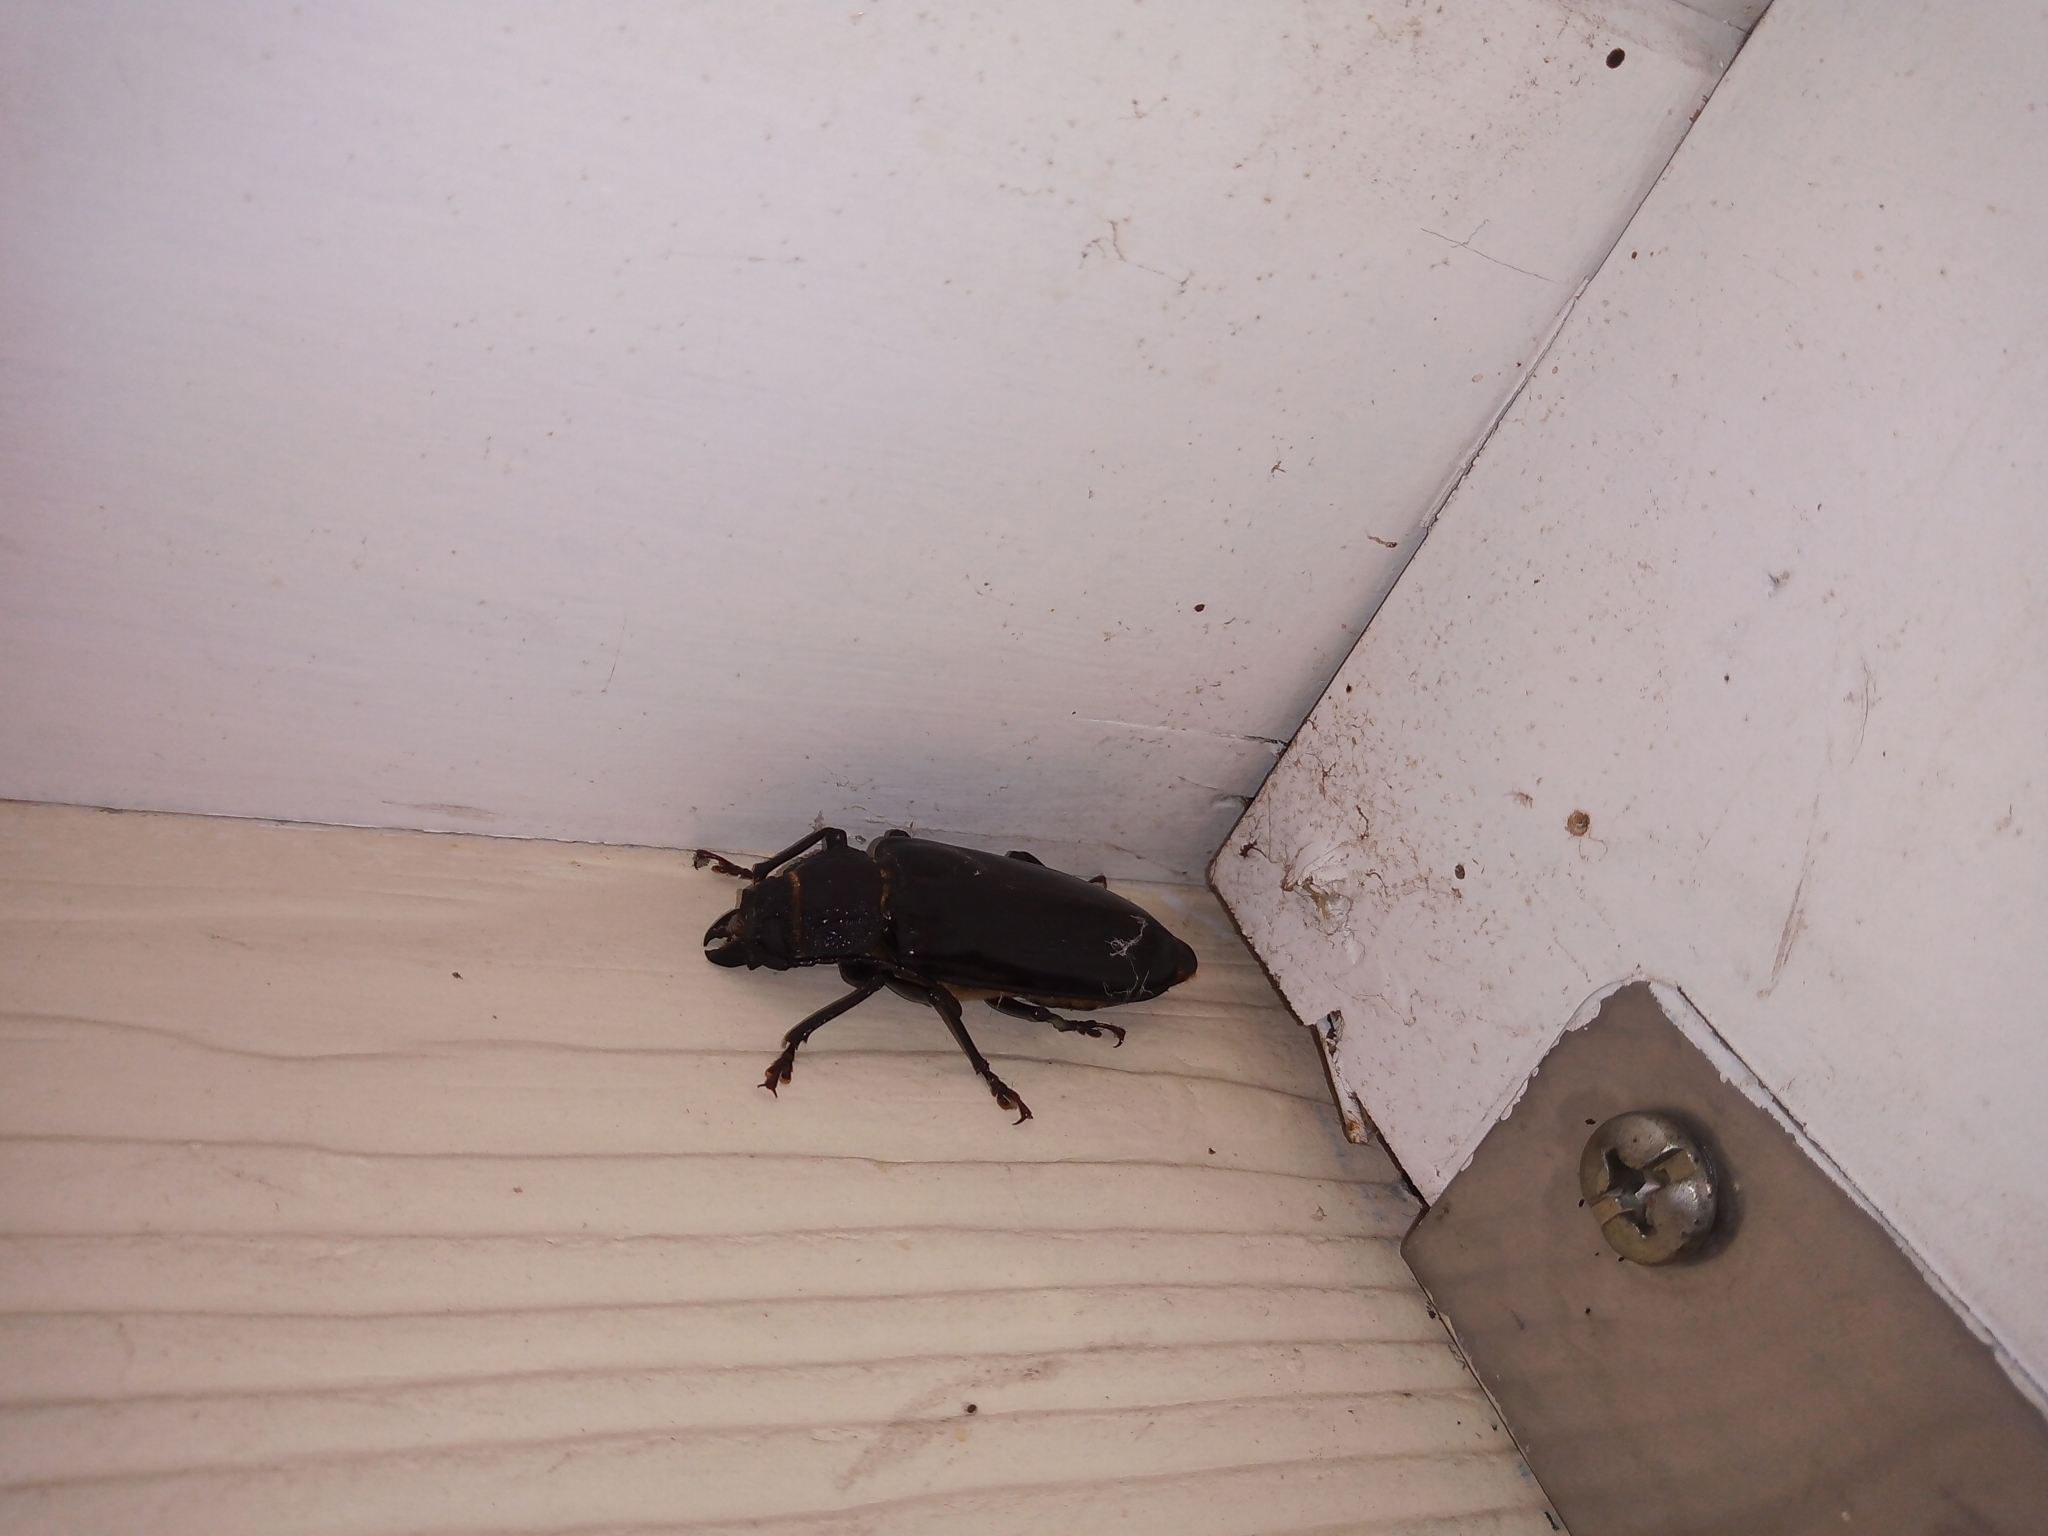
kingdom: Animalia
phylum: Arthropoda
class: Insecta
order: Coleoptera
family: Cerambycidae
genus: Mallodon
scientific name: Mallodon dasystomum
